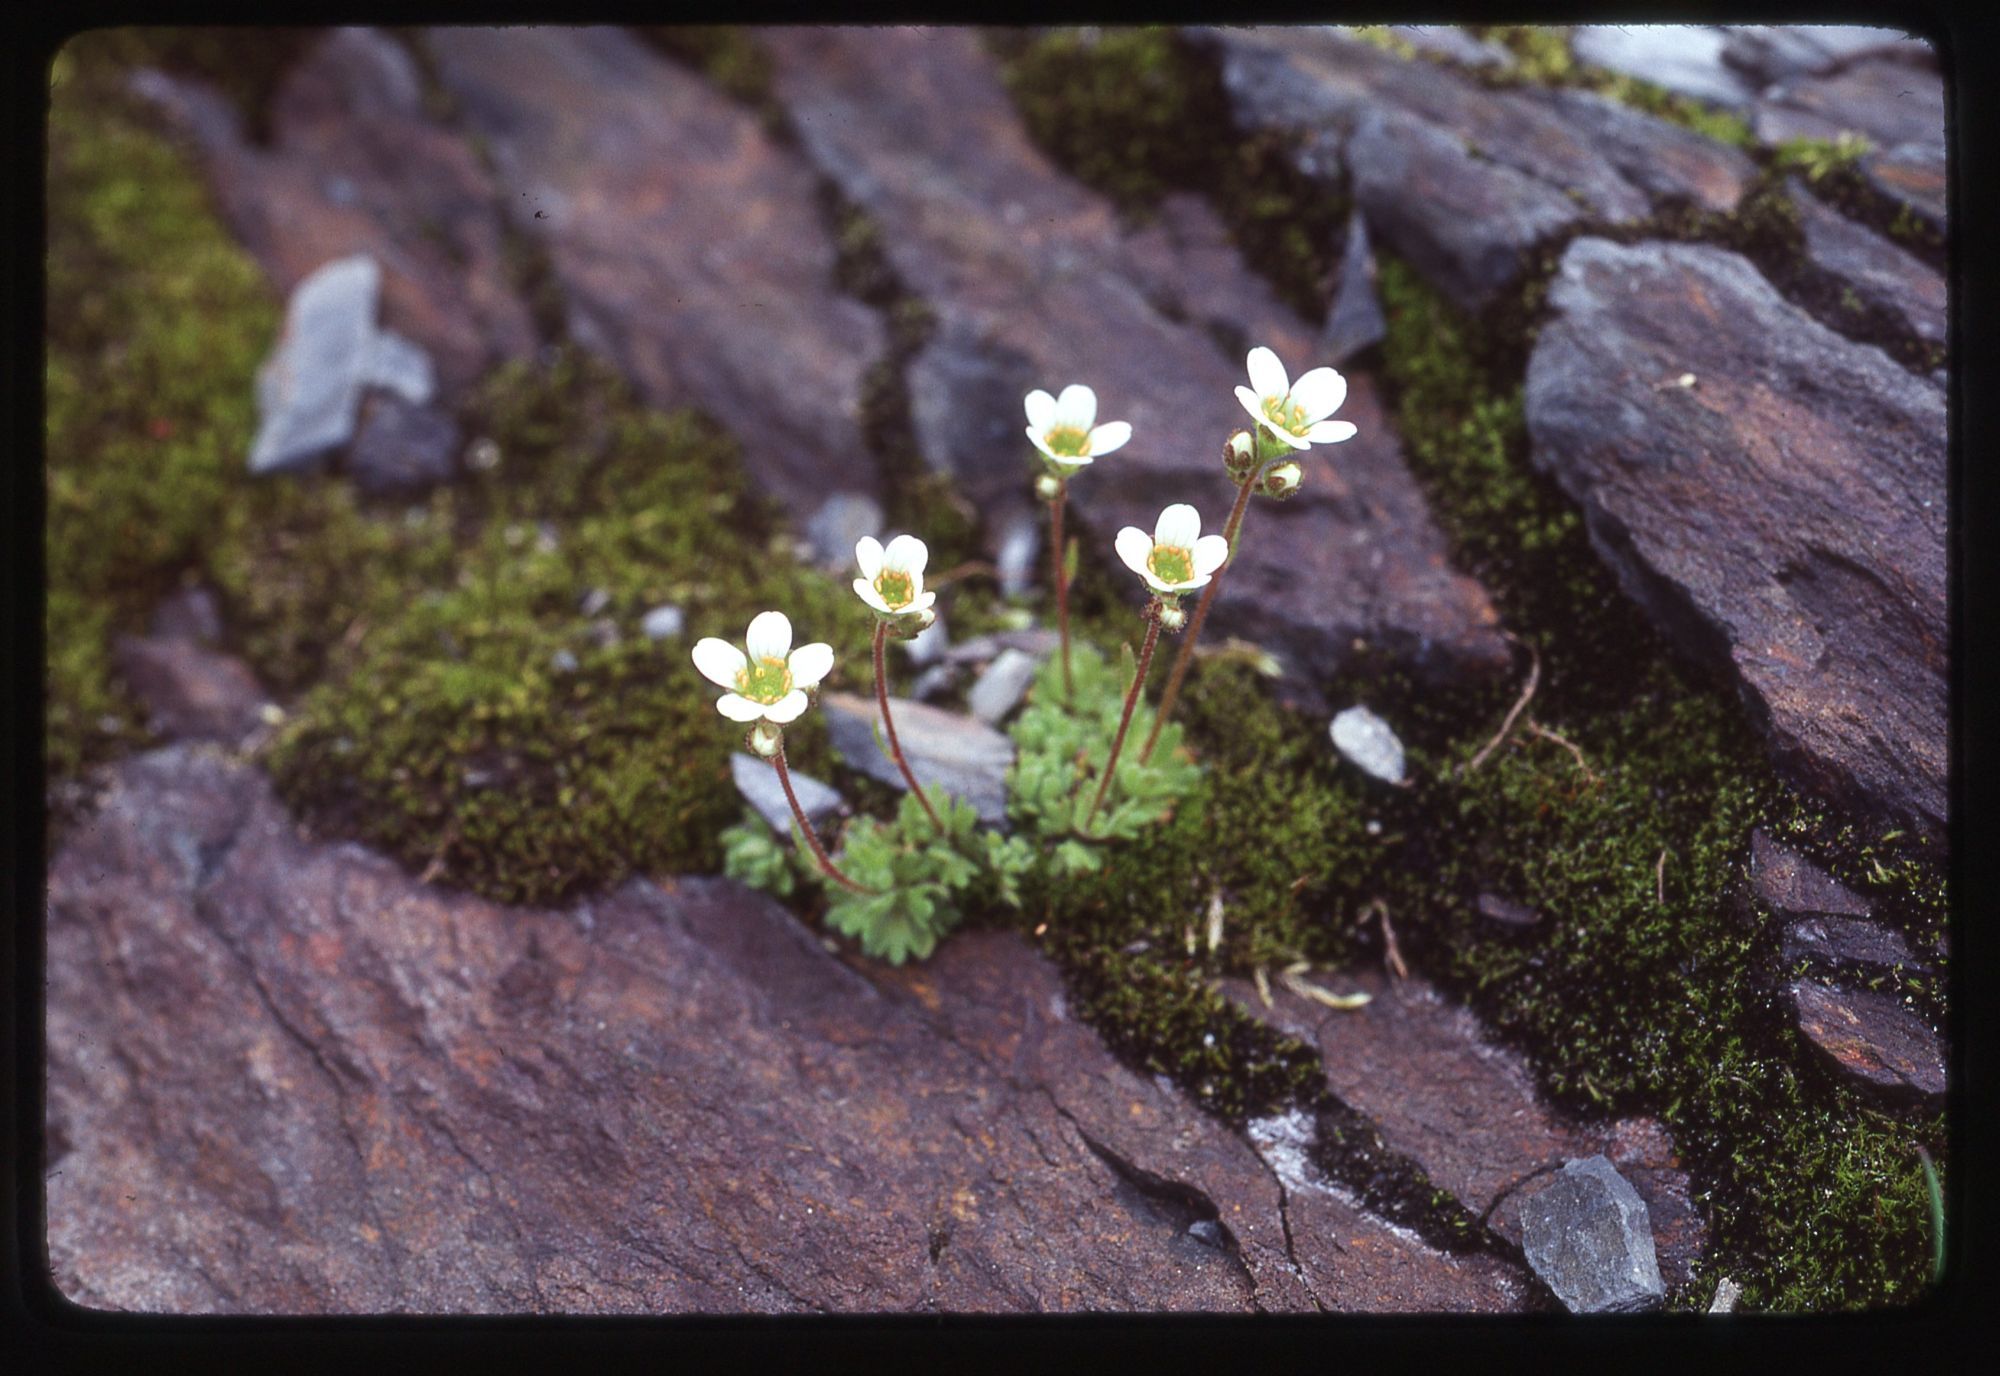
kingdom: Plantae
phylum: Tracheophyta
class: Magnoliopsida
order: Saxifragales
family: Saxifragaceae
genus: Saxifraga
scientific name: Saxifraga cespitosa
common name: Tufted saxifrage
